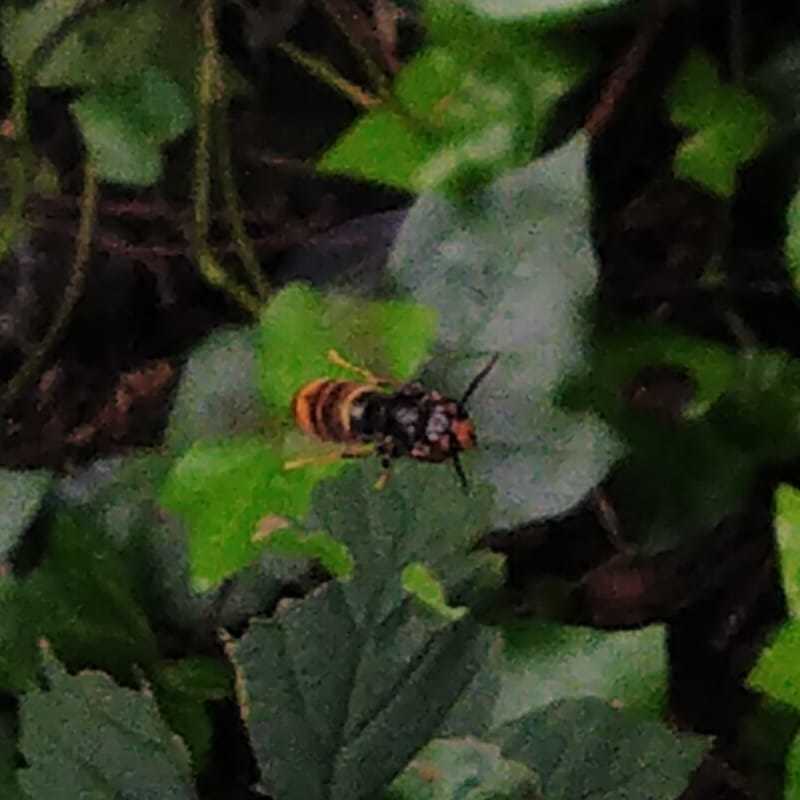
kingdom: Animalia
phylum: Arthropoda
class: Insecta
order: Hymenoptera
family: Vespidae
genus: Vespa
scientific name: Vespa velutina
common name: Asian hornet
